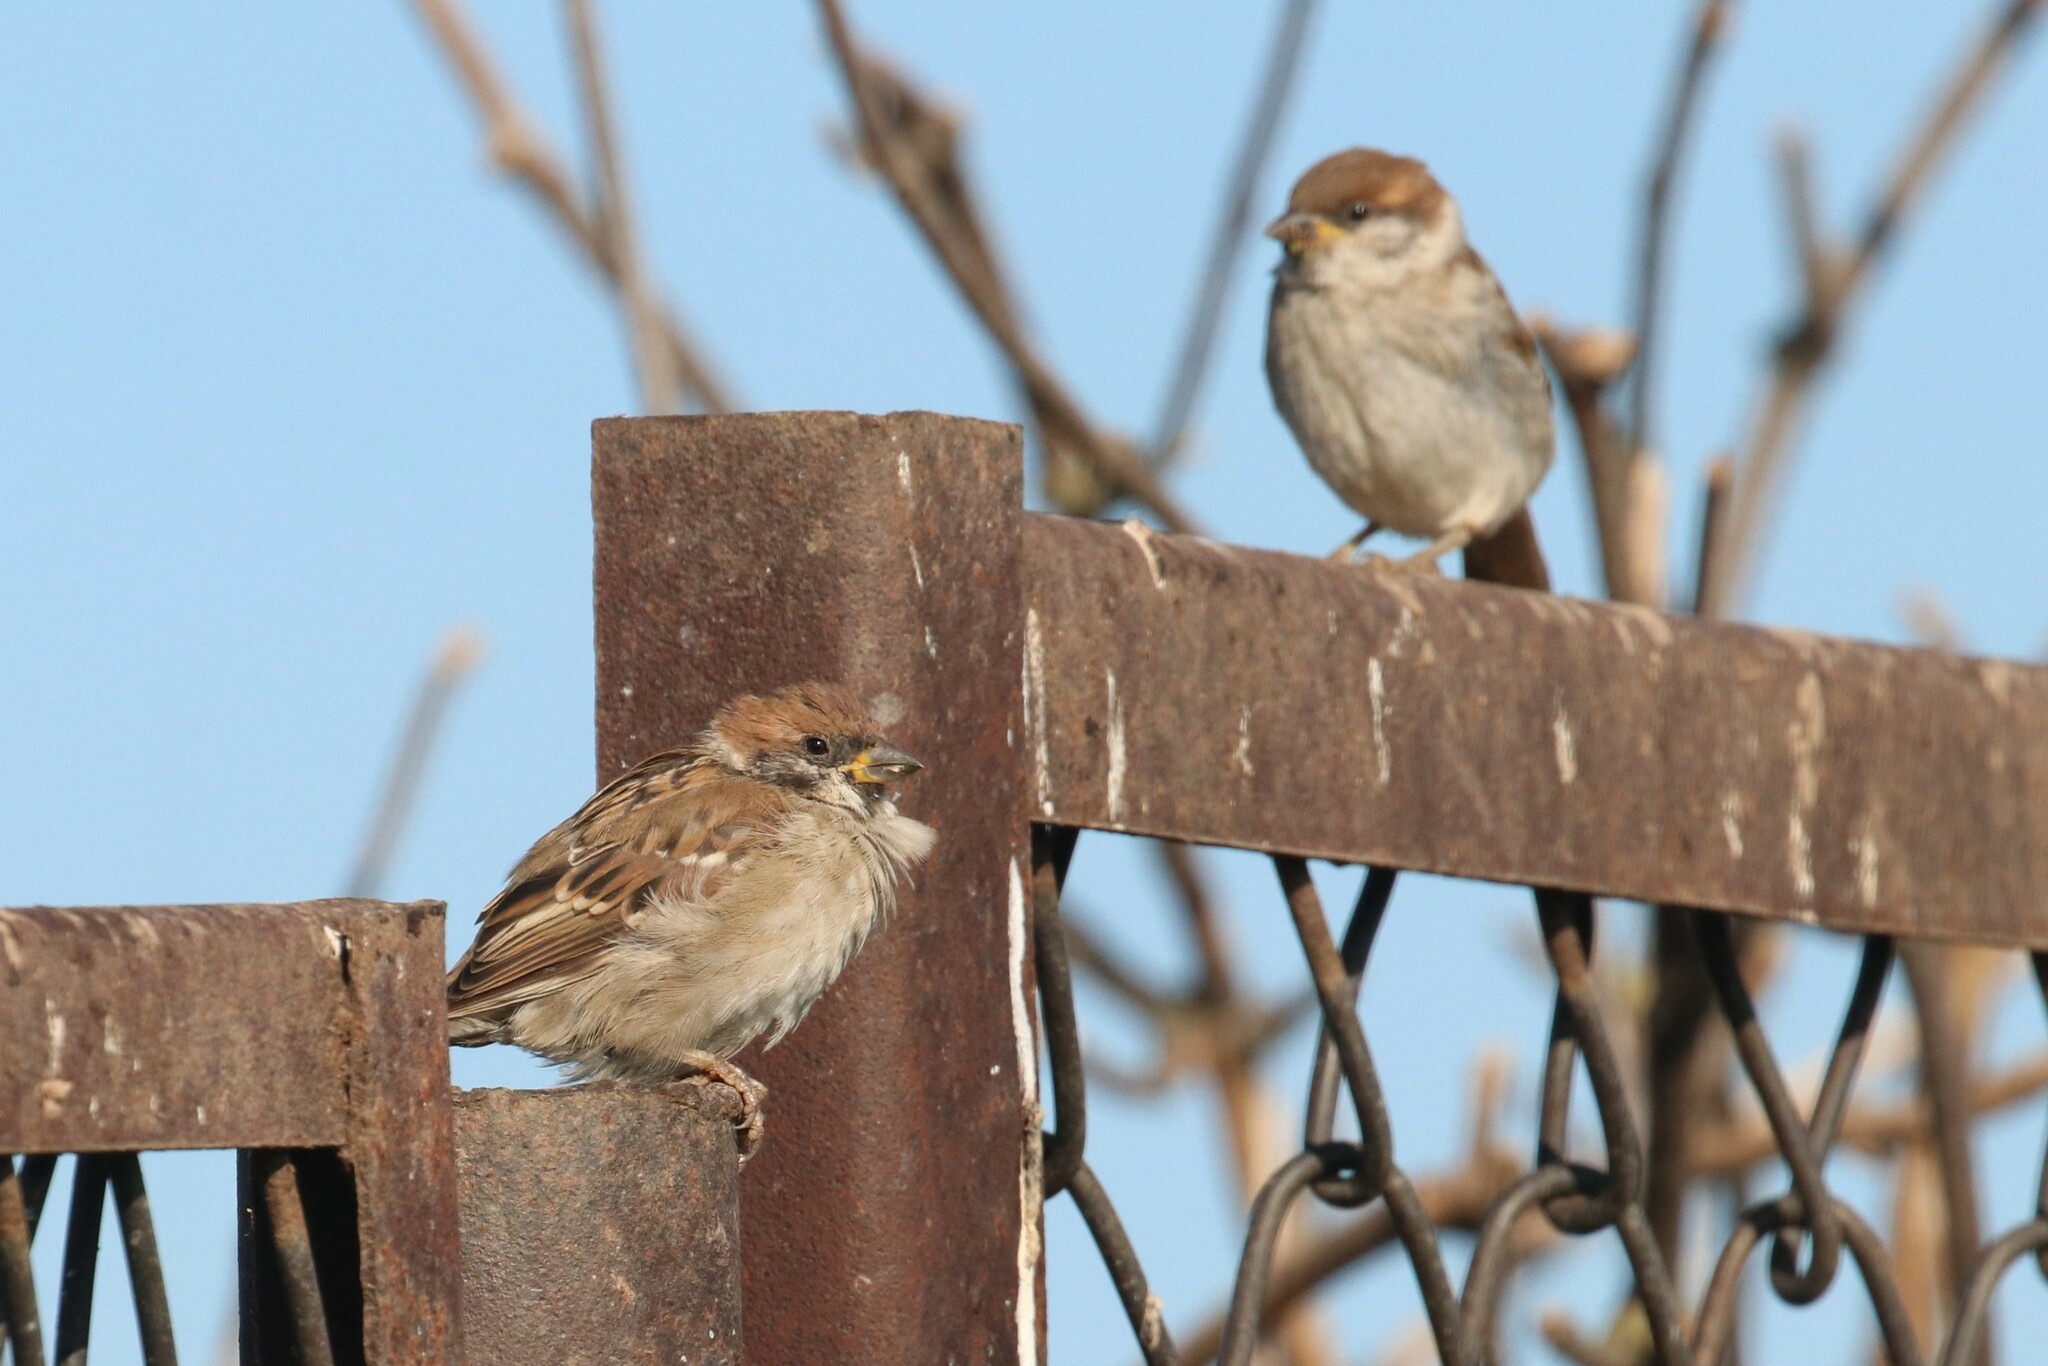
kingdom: Animalia
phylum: Chordata
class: Aves
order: Passeriformes
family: Passeridae
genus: Passer
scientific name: Passer montanus
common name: Eurasian tree sparrow
